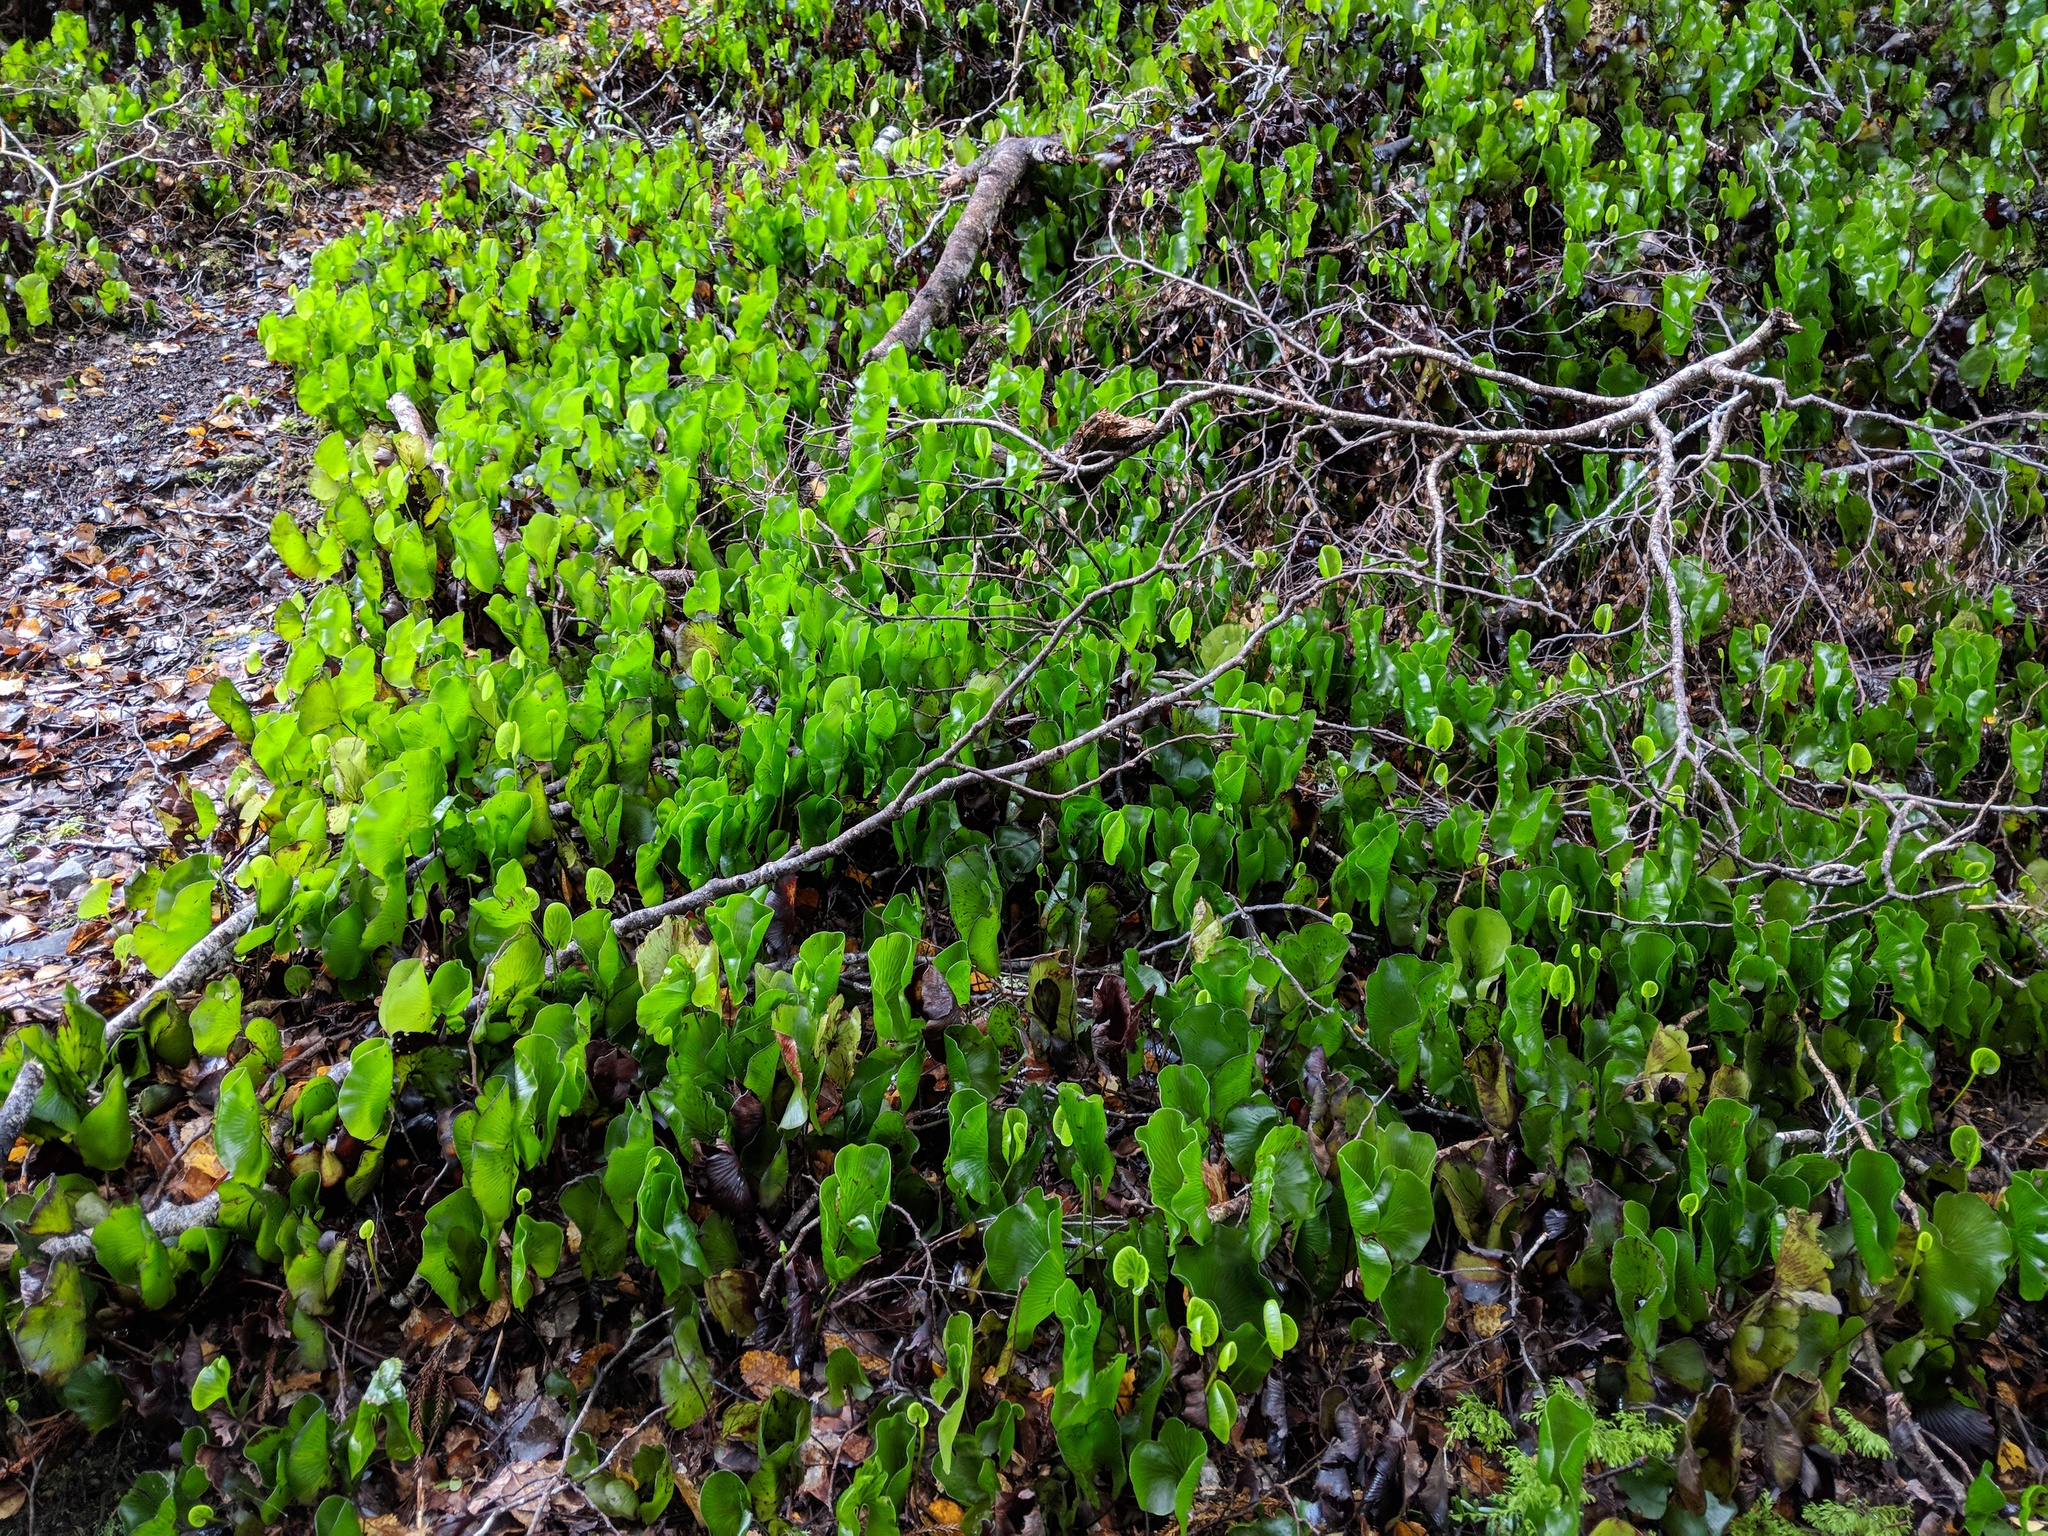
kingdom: Plantae
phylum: Tracheophyta
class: Polypodiopsida
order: Hymenophyllales
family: Hymenophyllaceae
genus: Hymenophyllum
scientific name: Hymenophyllum nephrophyllum
